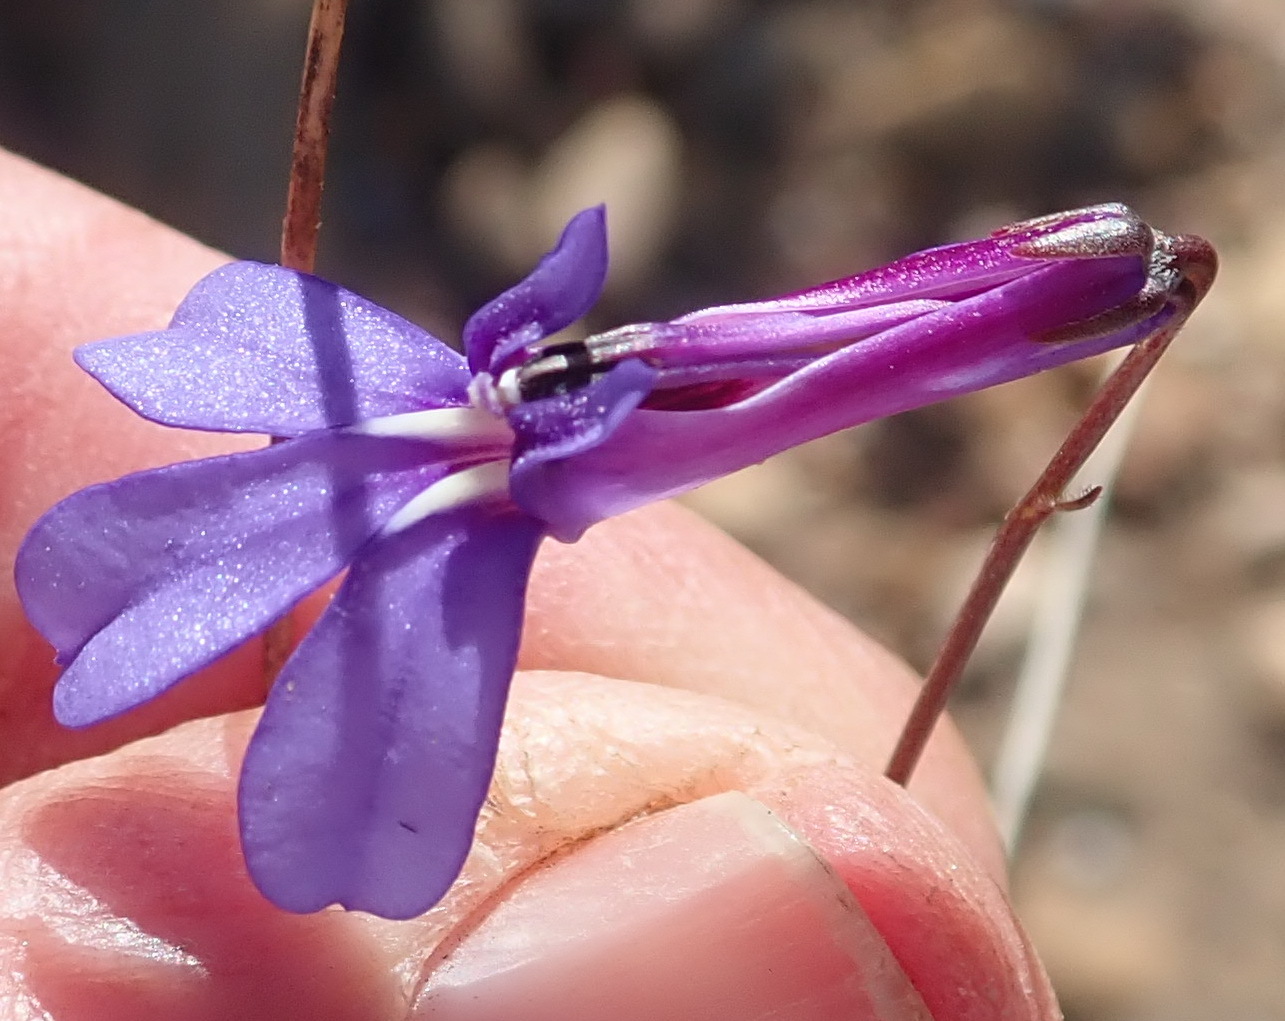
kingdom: Plantae
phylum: Tracheophyta
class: Magnoliopsida
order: Asterales
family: Campanulaceae
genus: Lobelia
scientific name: Lobelia tomentosa
